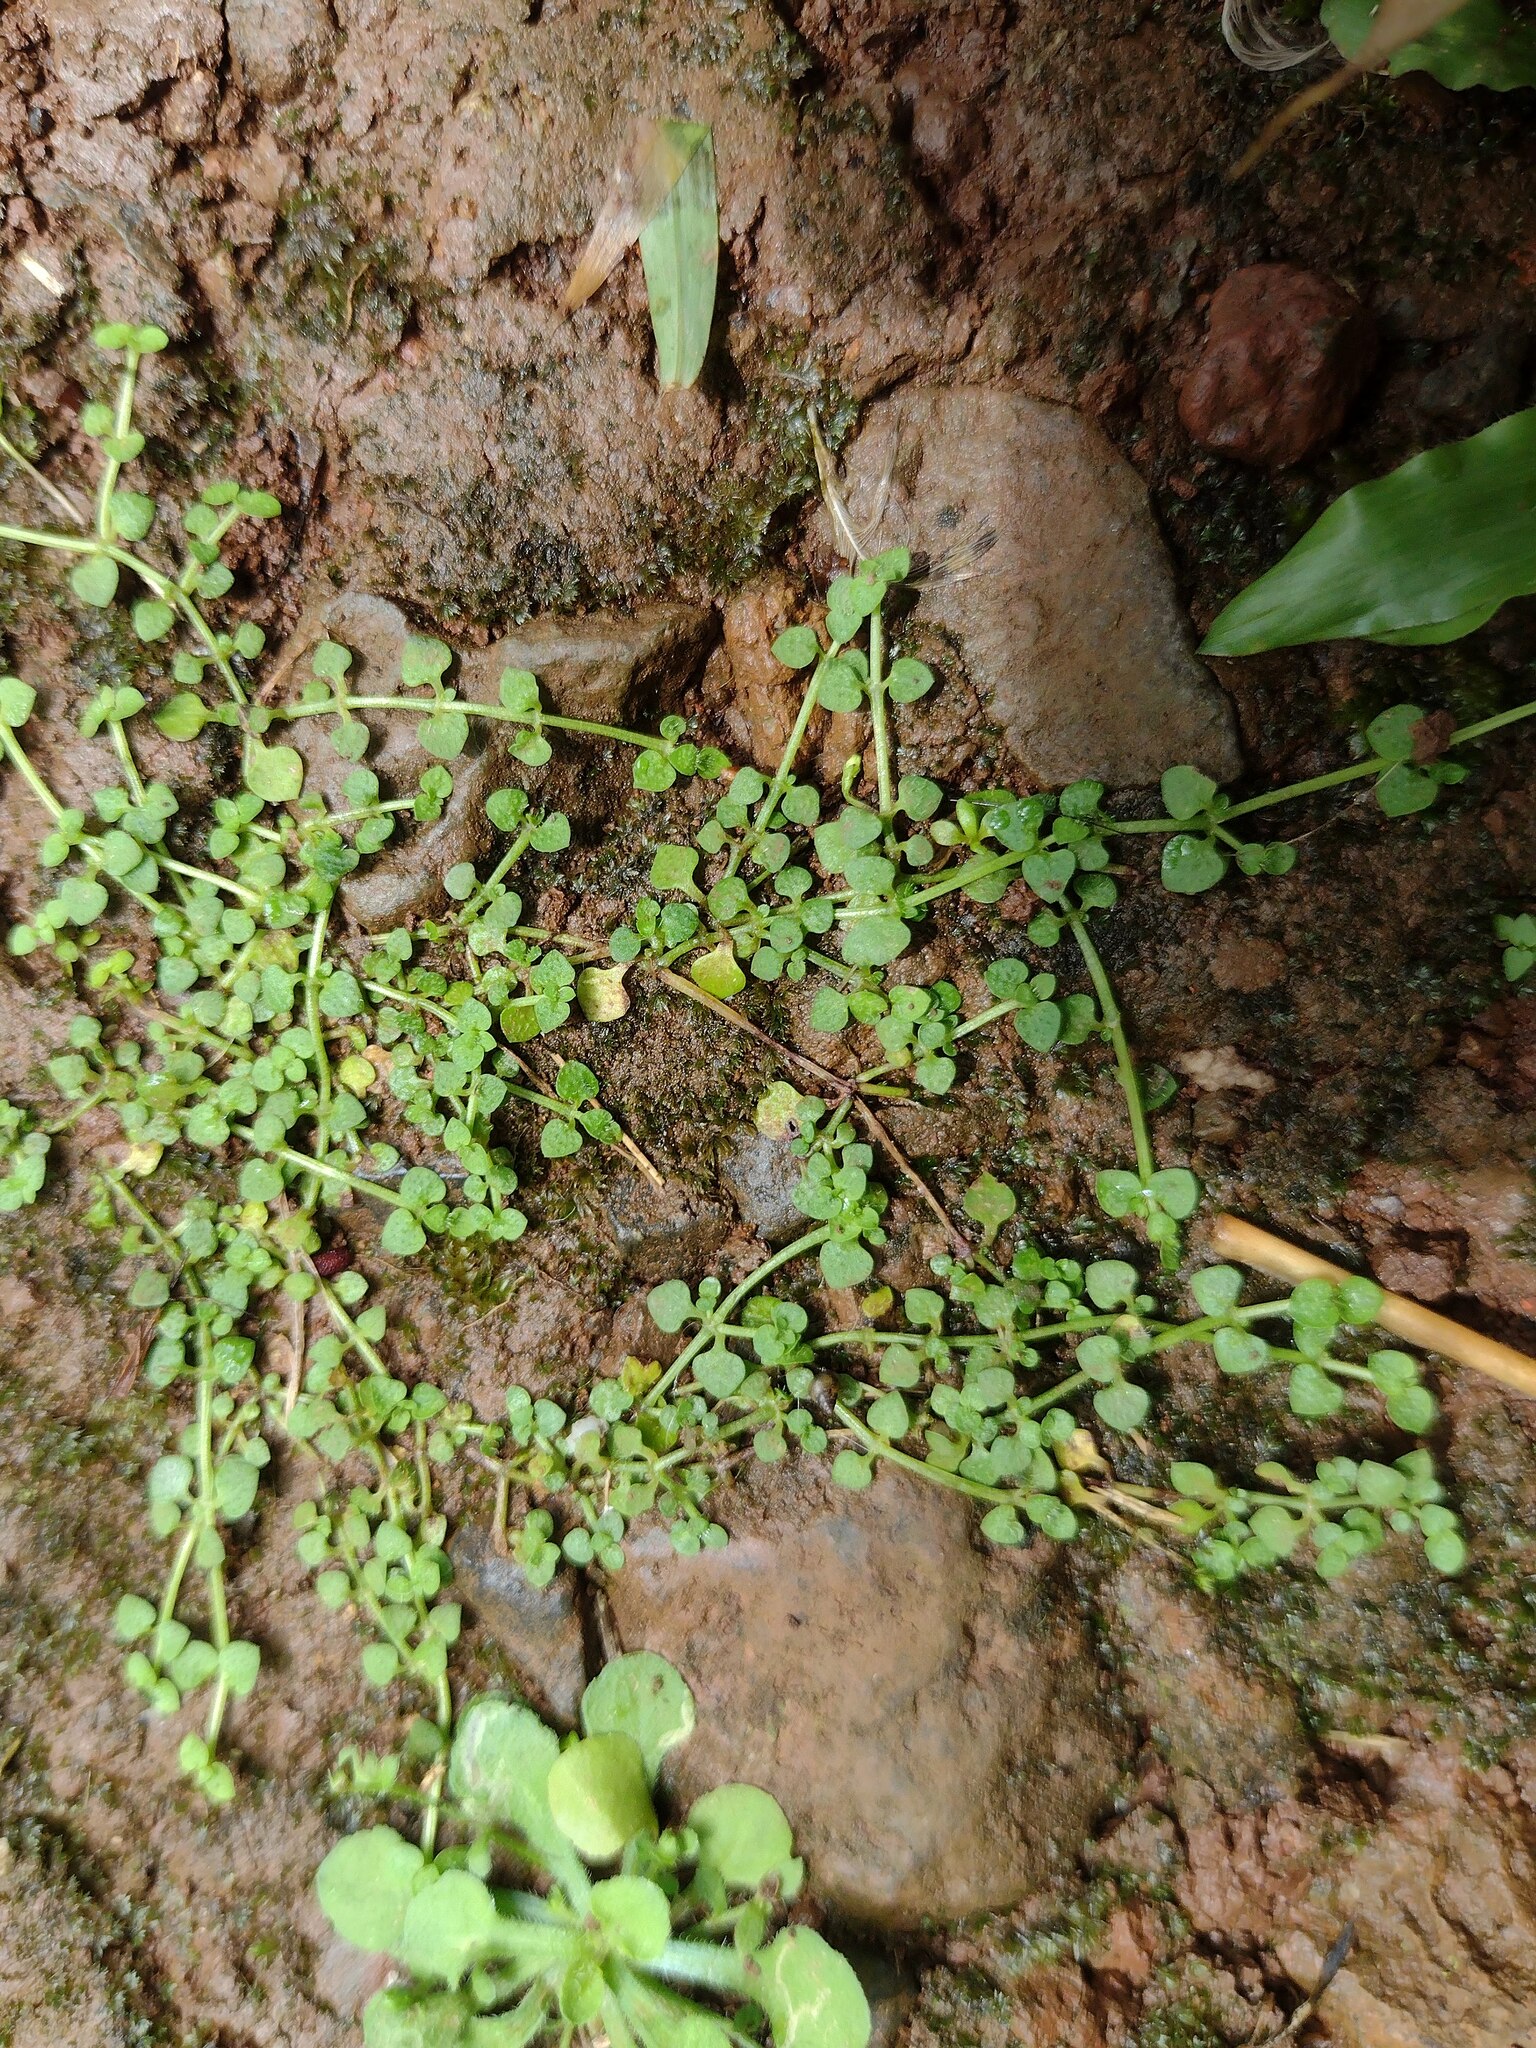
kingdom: Plantae
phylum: Tracheophyta
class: Magnoliopsida
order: Gentianales
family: Rubiaceae
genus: Oldenlandiopsis
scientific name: Oldenlandiopsis callitrichoides
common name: Creeping-bluet
